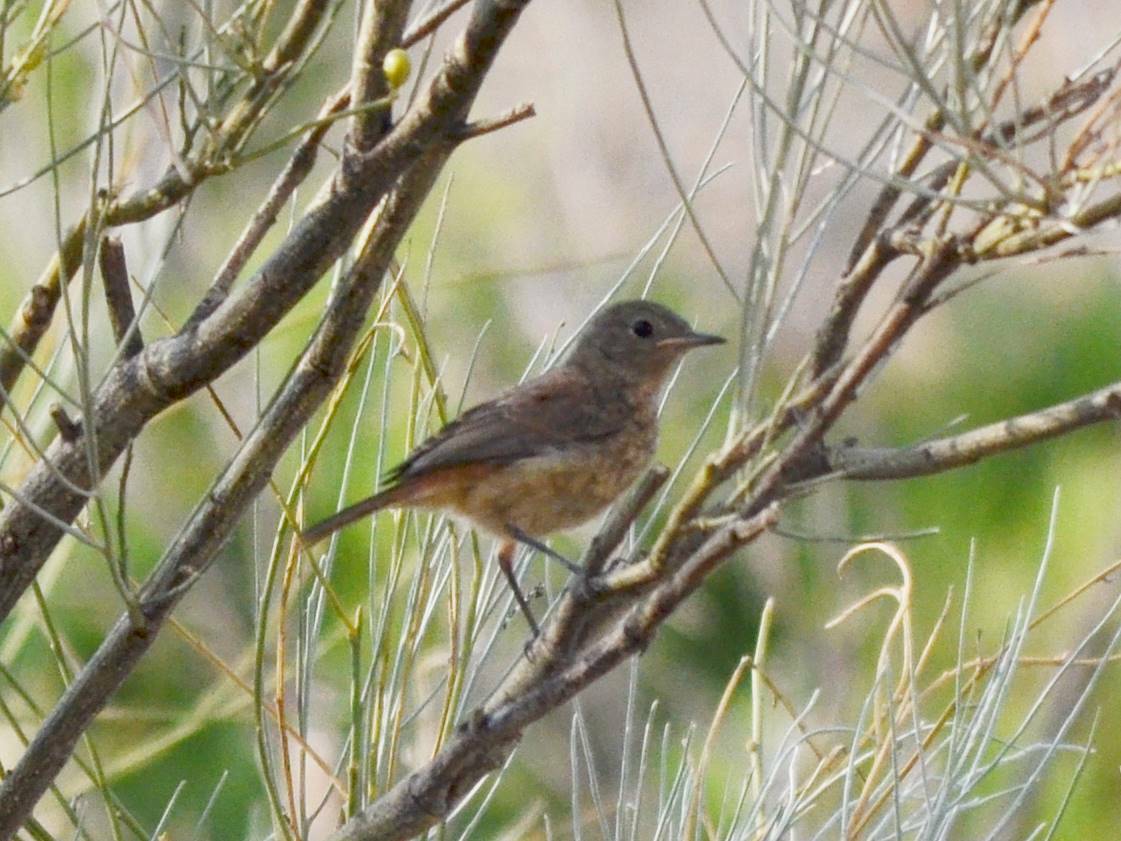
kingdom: Animalia
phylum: Chordata
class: Aves
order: Passeriformes
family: Muscicapidae
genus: Phoenicurus
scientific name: Phoenicurus moussieri
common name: Moussier's redstart
